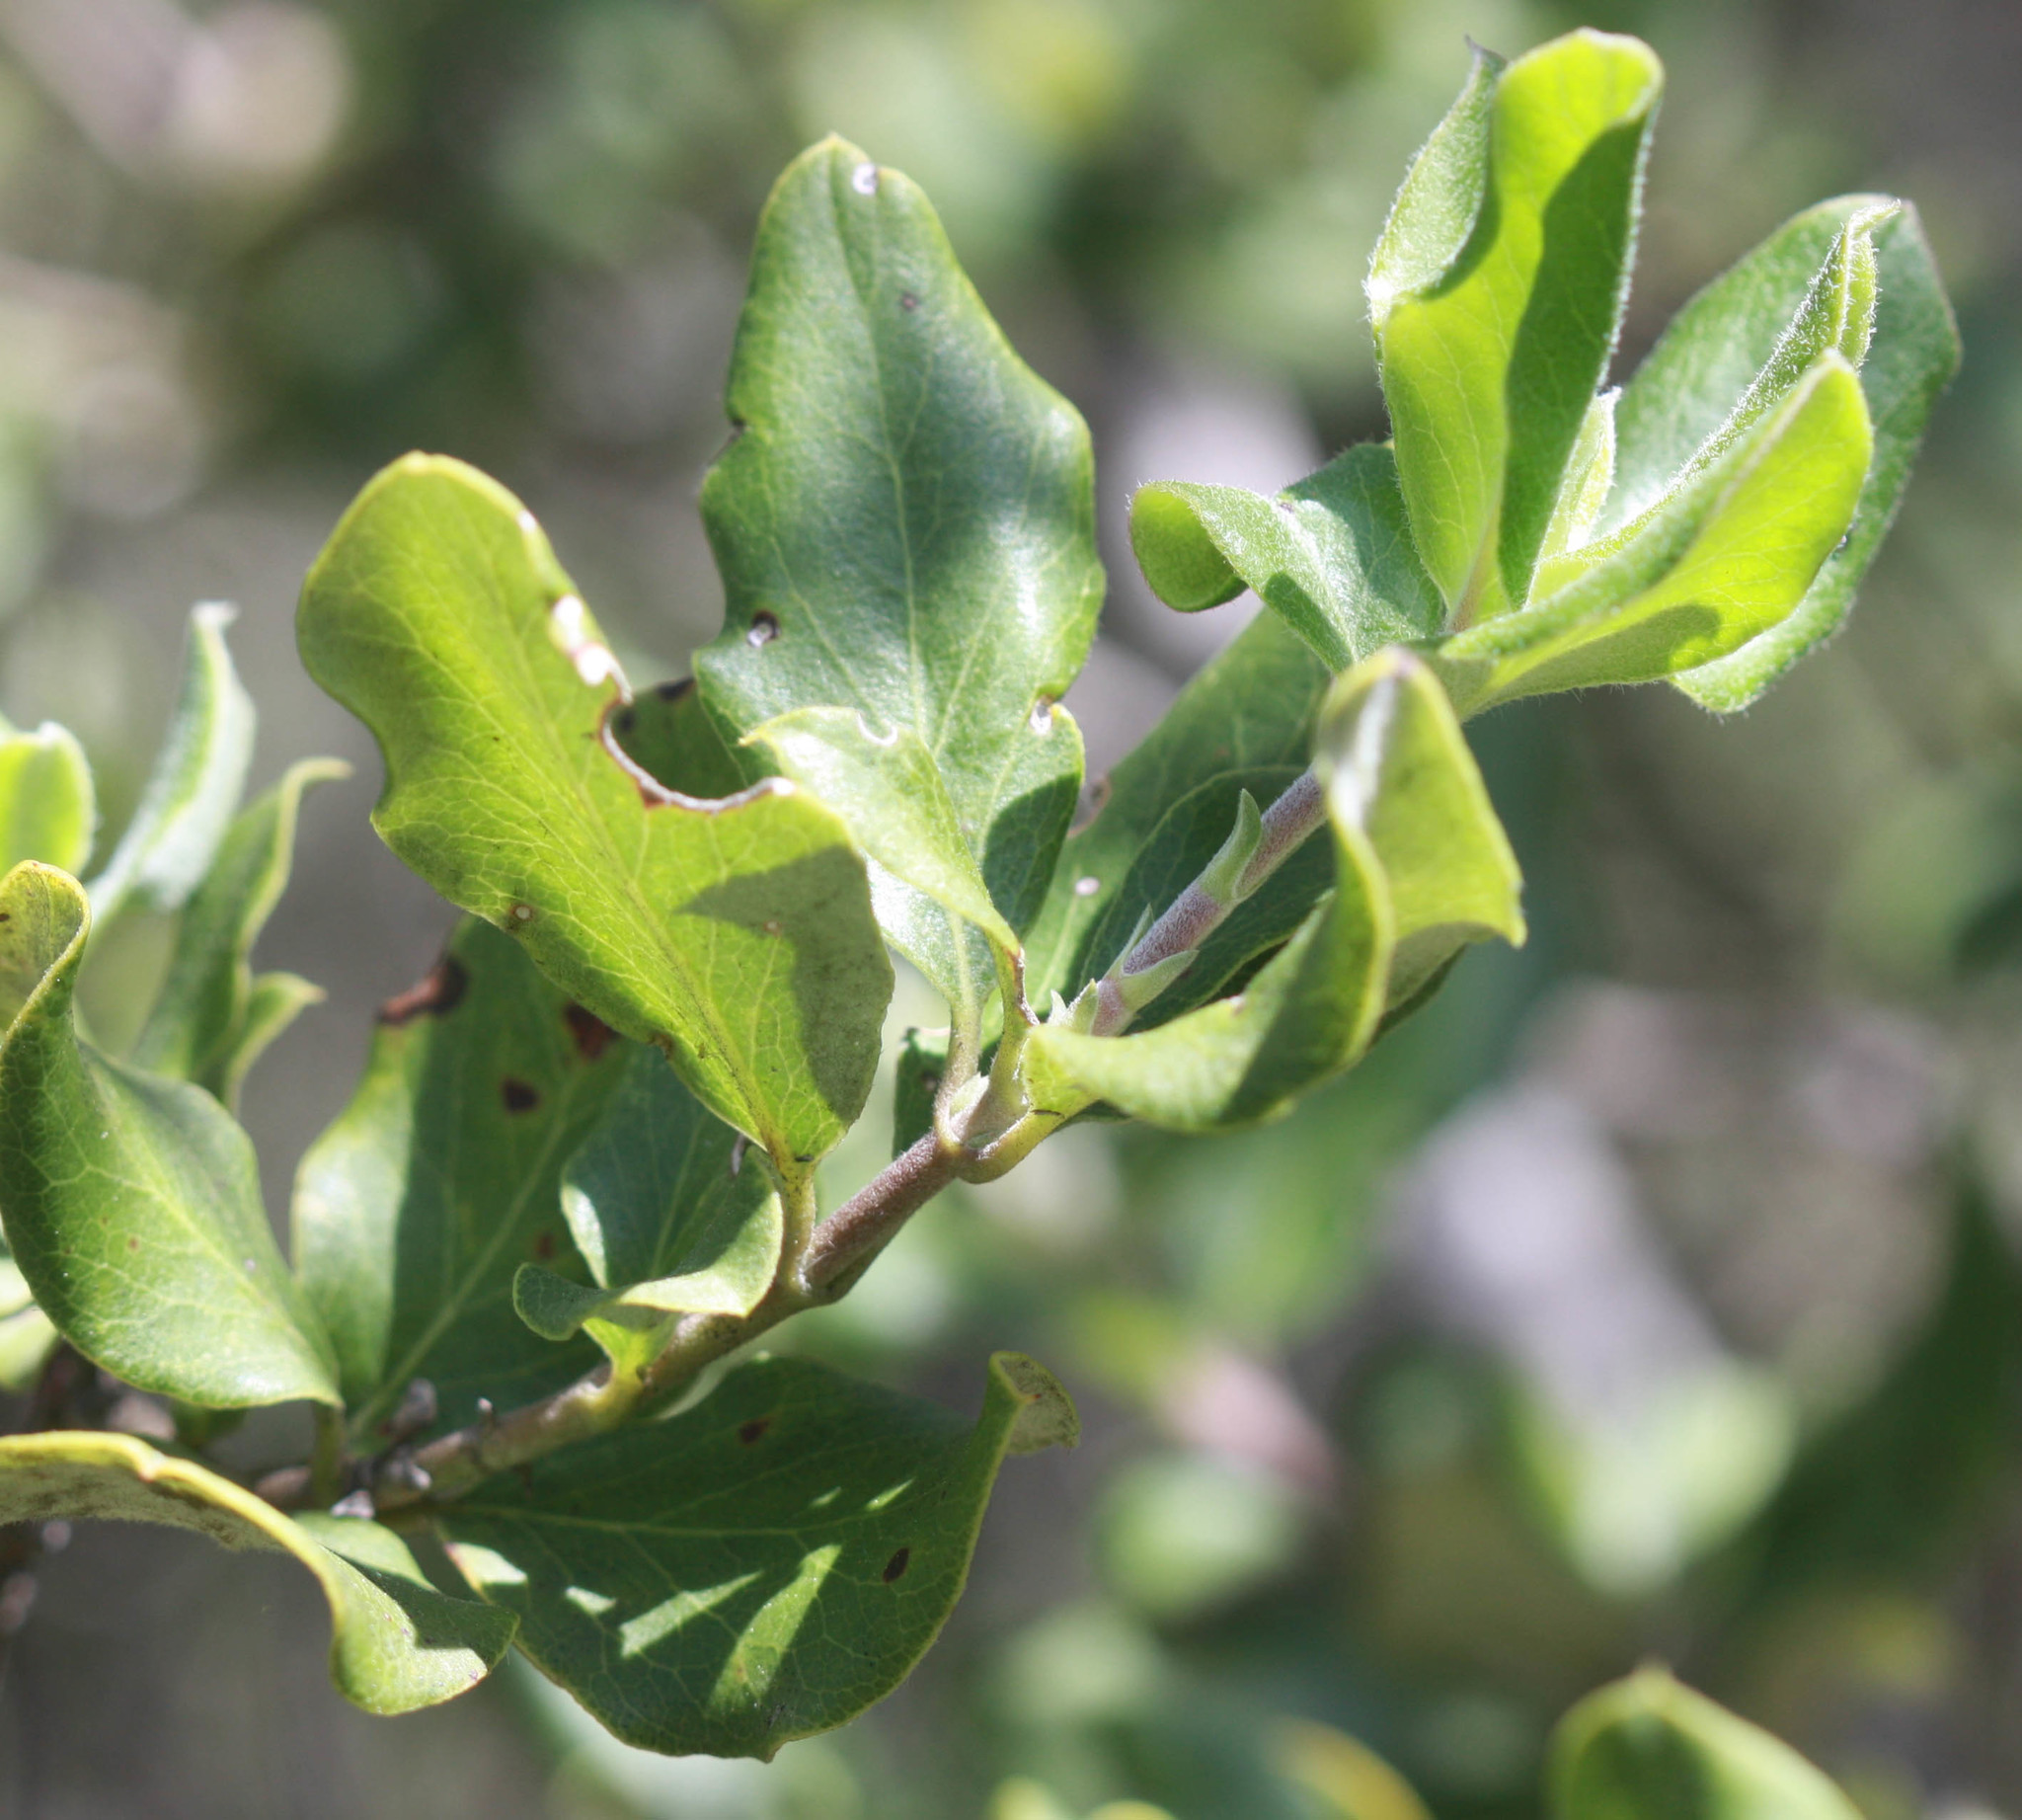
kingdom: Plantae
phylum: Tracheophyta
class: Magnoliopsida
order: Garryales
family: Garryaceae
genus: Garrya
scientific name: Garrya elliptica
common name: Silk-tassel
